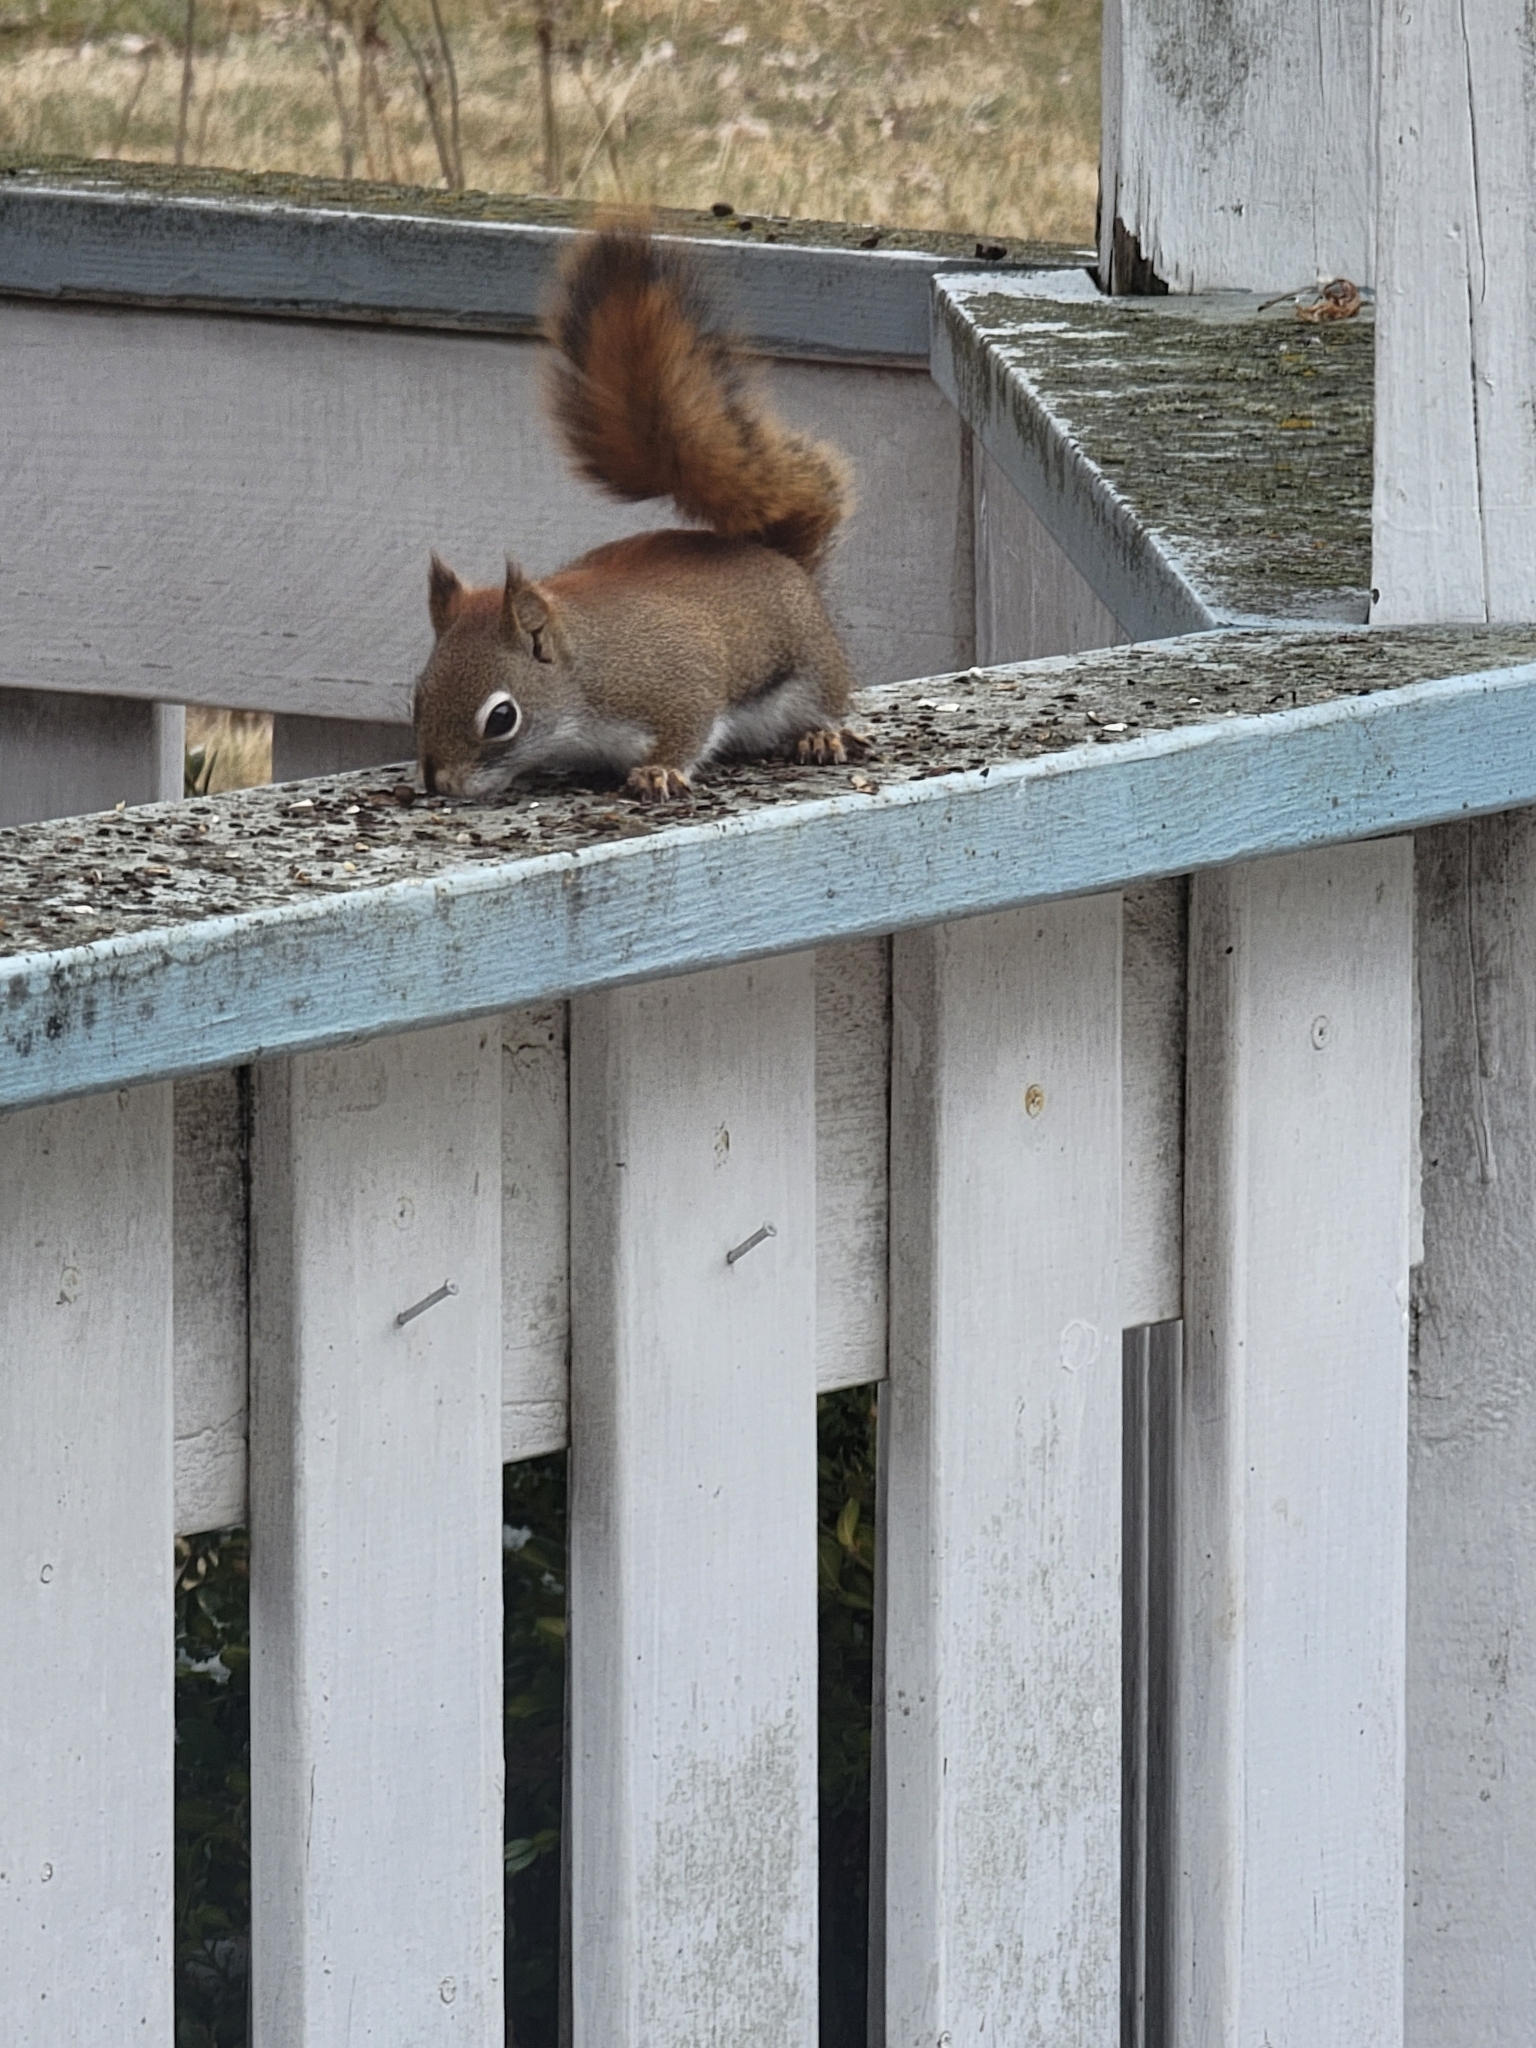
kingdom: Animalia
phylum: Chordata
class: Mammalia
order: Rodentia
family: Sciuridae
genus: Tamiasciurus
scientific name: Tamiasciurus hudsonicus
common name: Red squirrel
